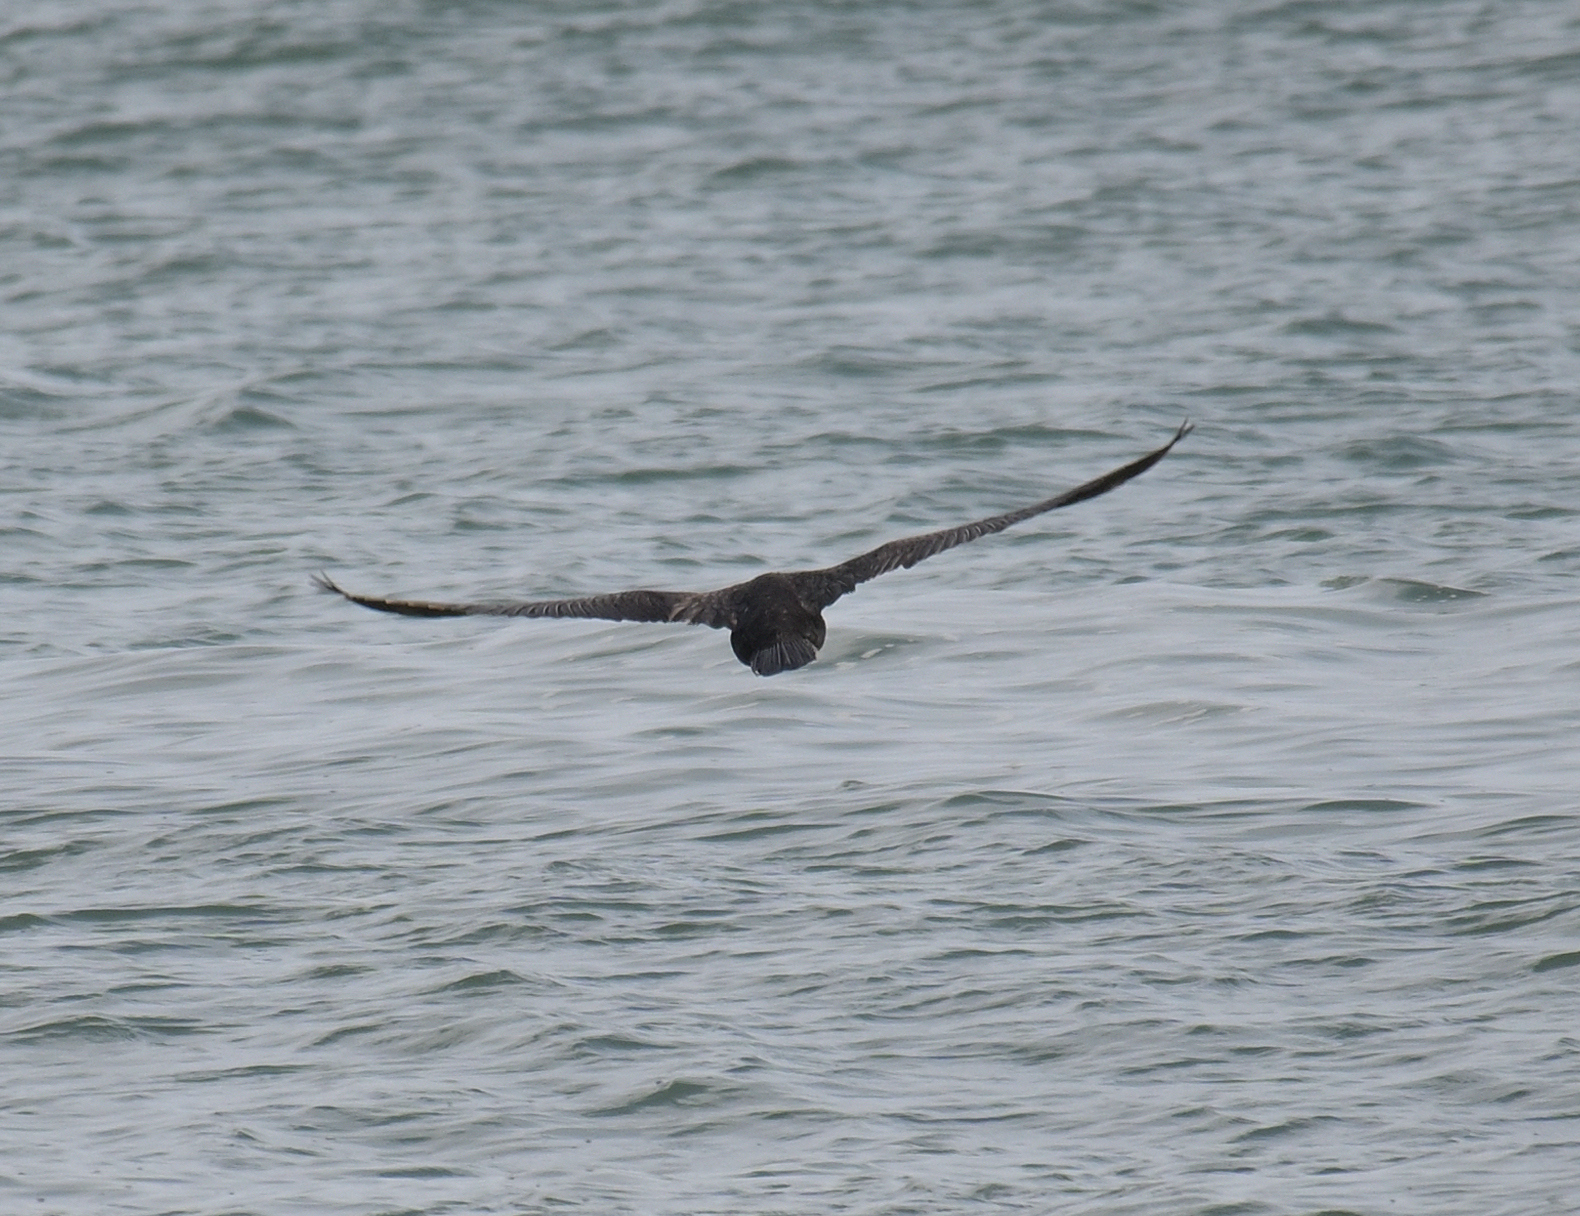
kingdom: Animalia
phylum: Chordata
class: Aves
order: Suliformes
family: Phalacrocoracidae
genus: Phalacrocorax
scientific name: Phalacrocorax carbo
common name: Great cormorant
